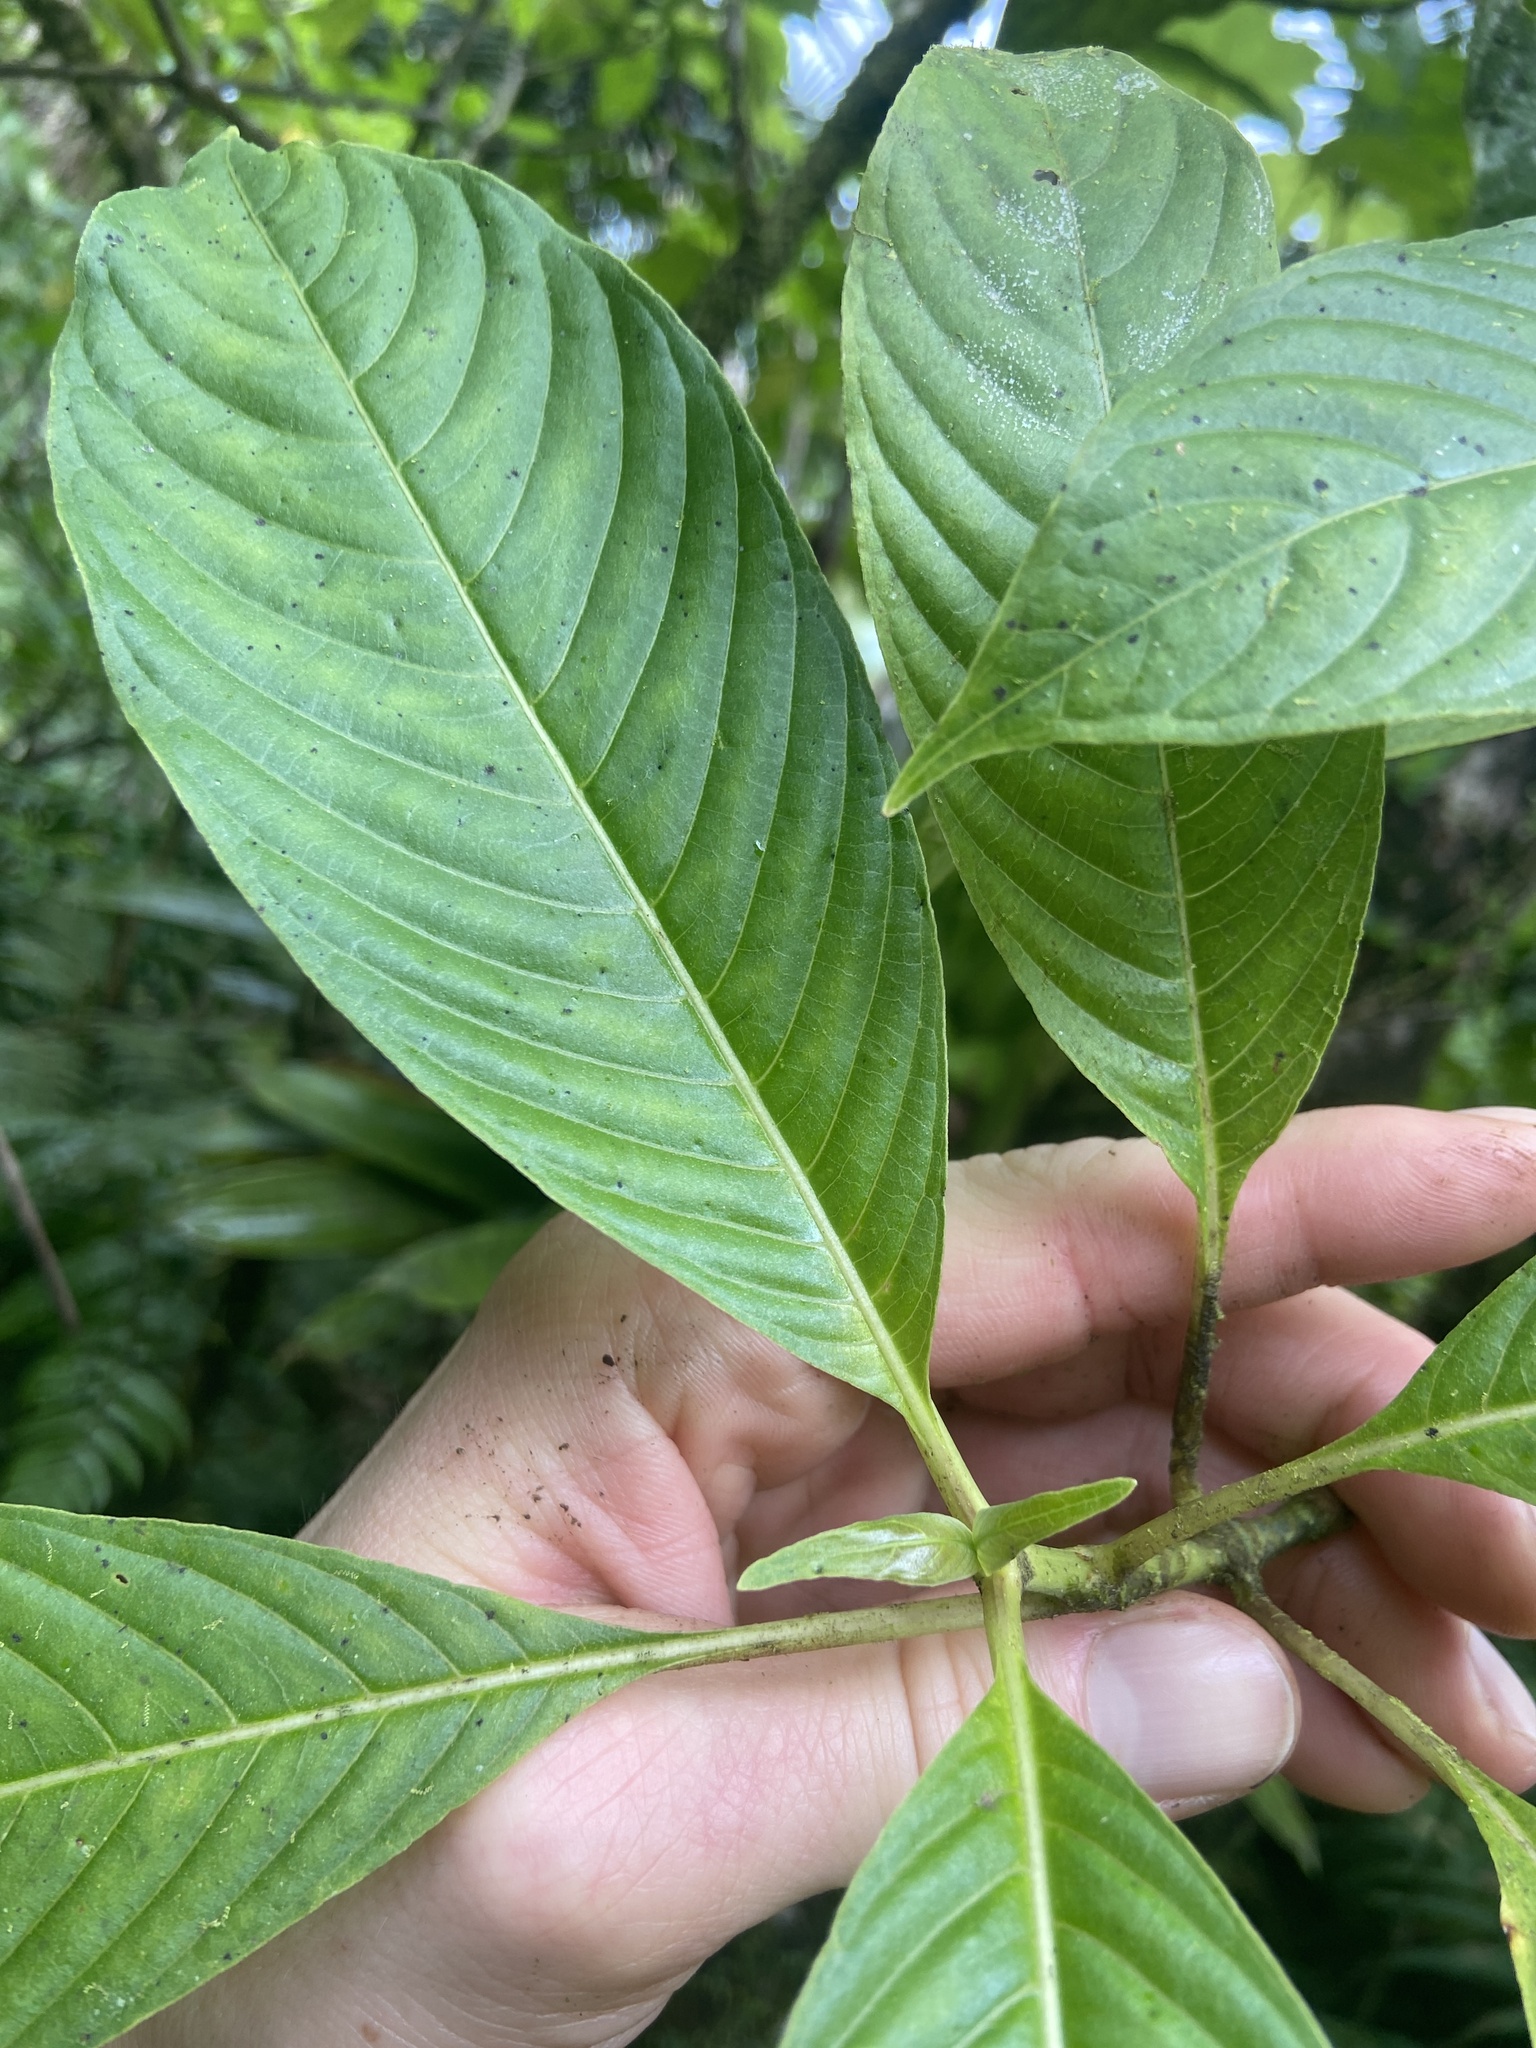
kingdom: Plantae
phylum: Tracheophyta
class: Magnoliopsida
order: Gentianales
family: Rubiaceae
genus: Palicourea
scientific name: Palicourea berteroana
